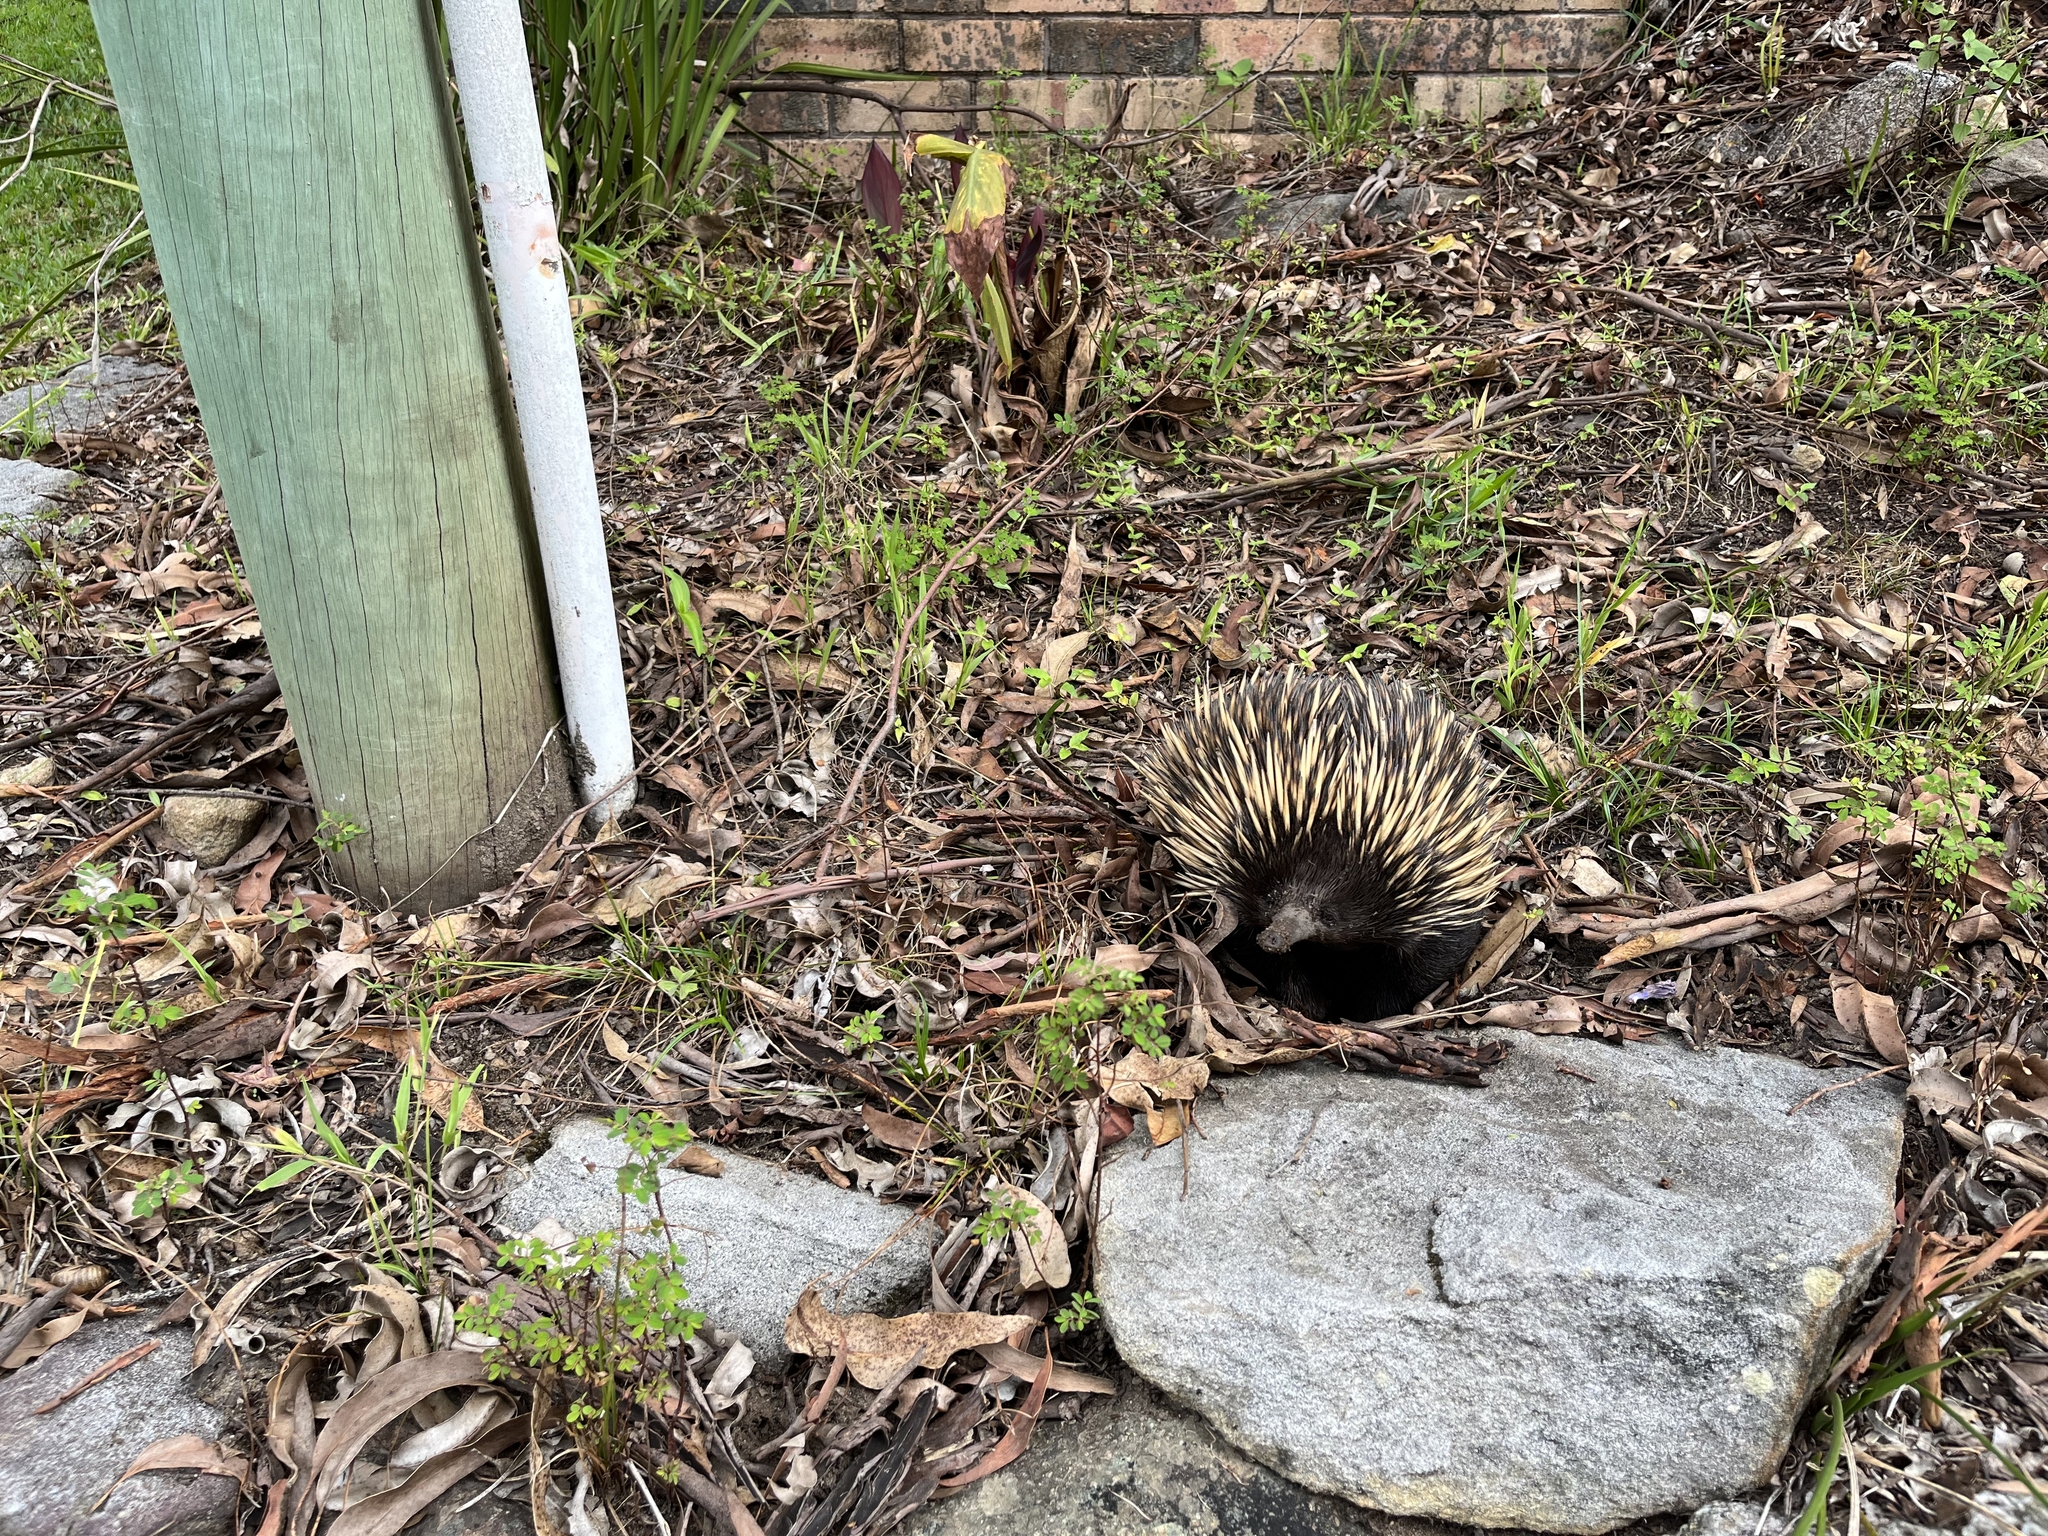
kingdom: Animalia
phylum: Chordata
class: Mammalia
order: Monotremata
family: Tachyglossidae
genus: Tachyglossus
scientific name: Tachyglossus aculeatus
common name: Short-beaked echidna
